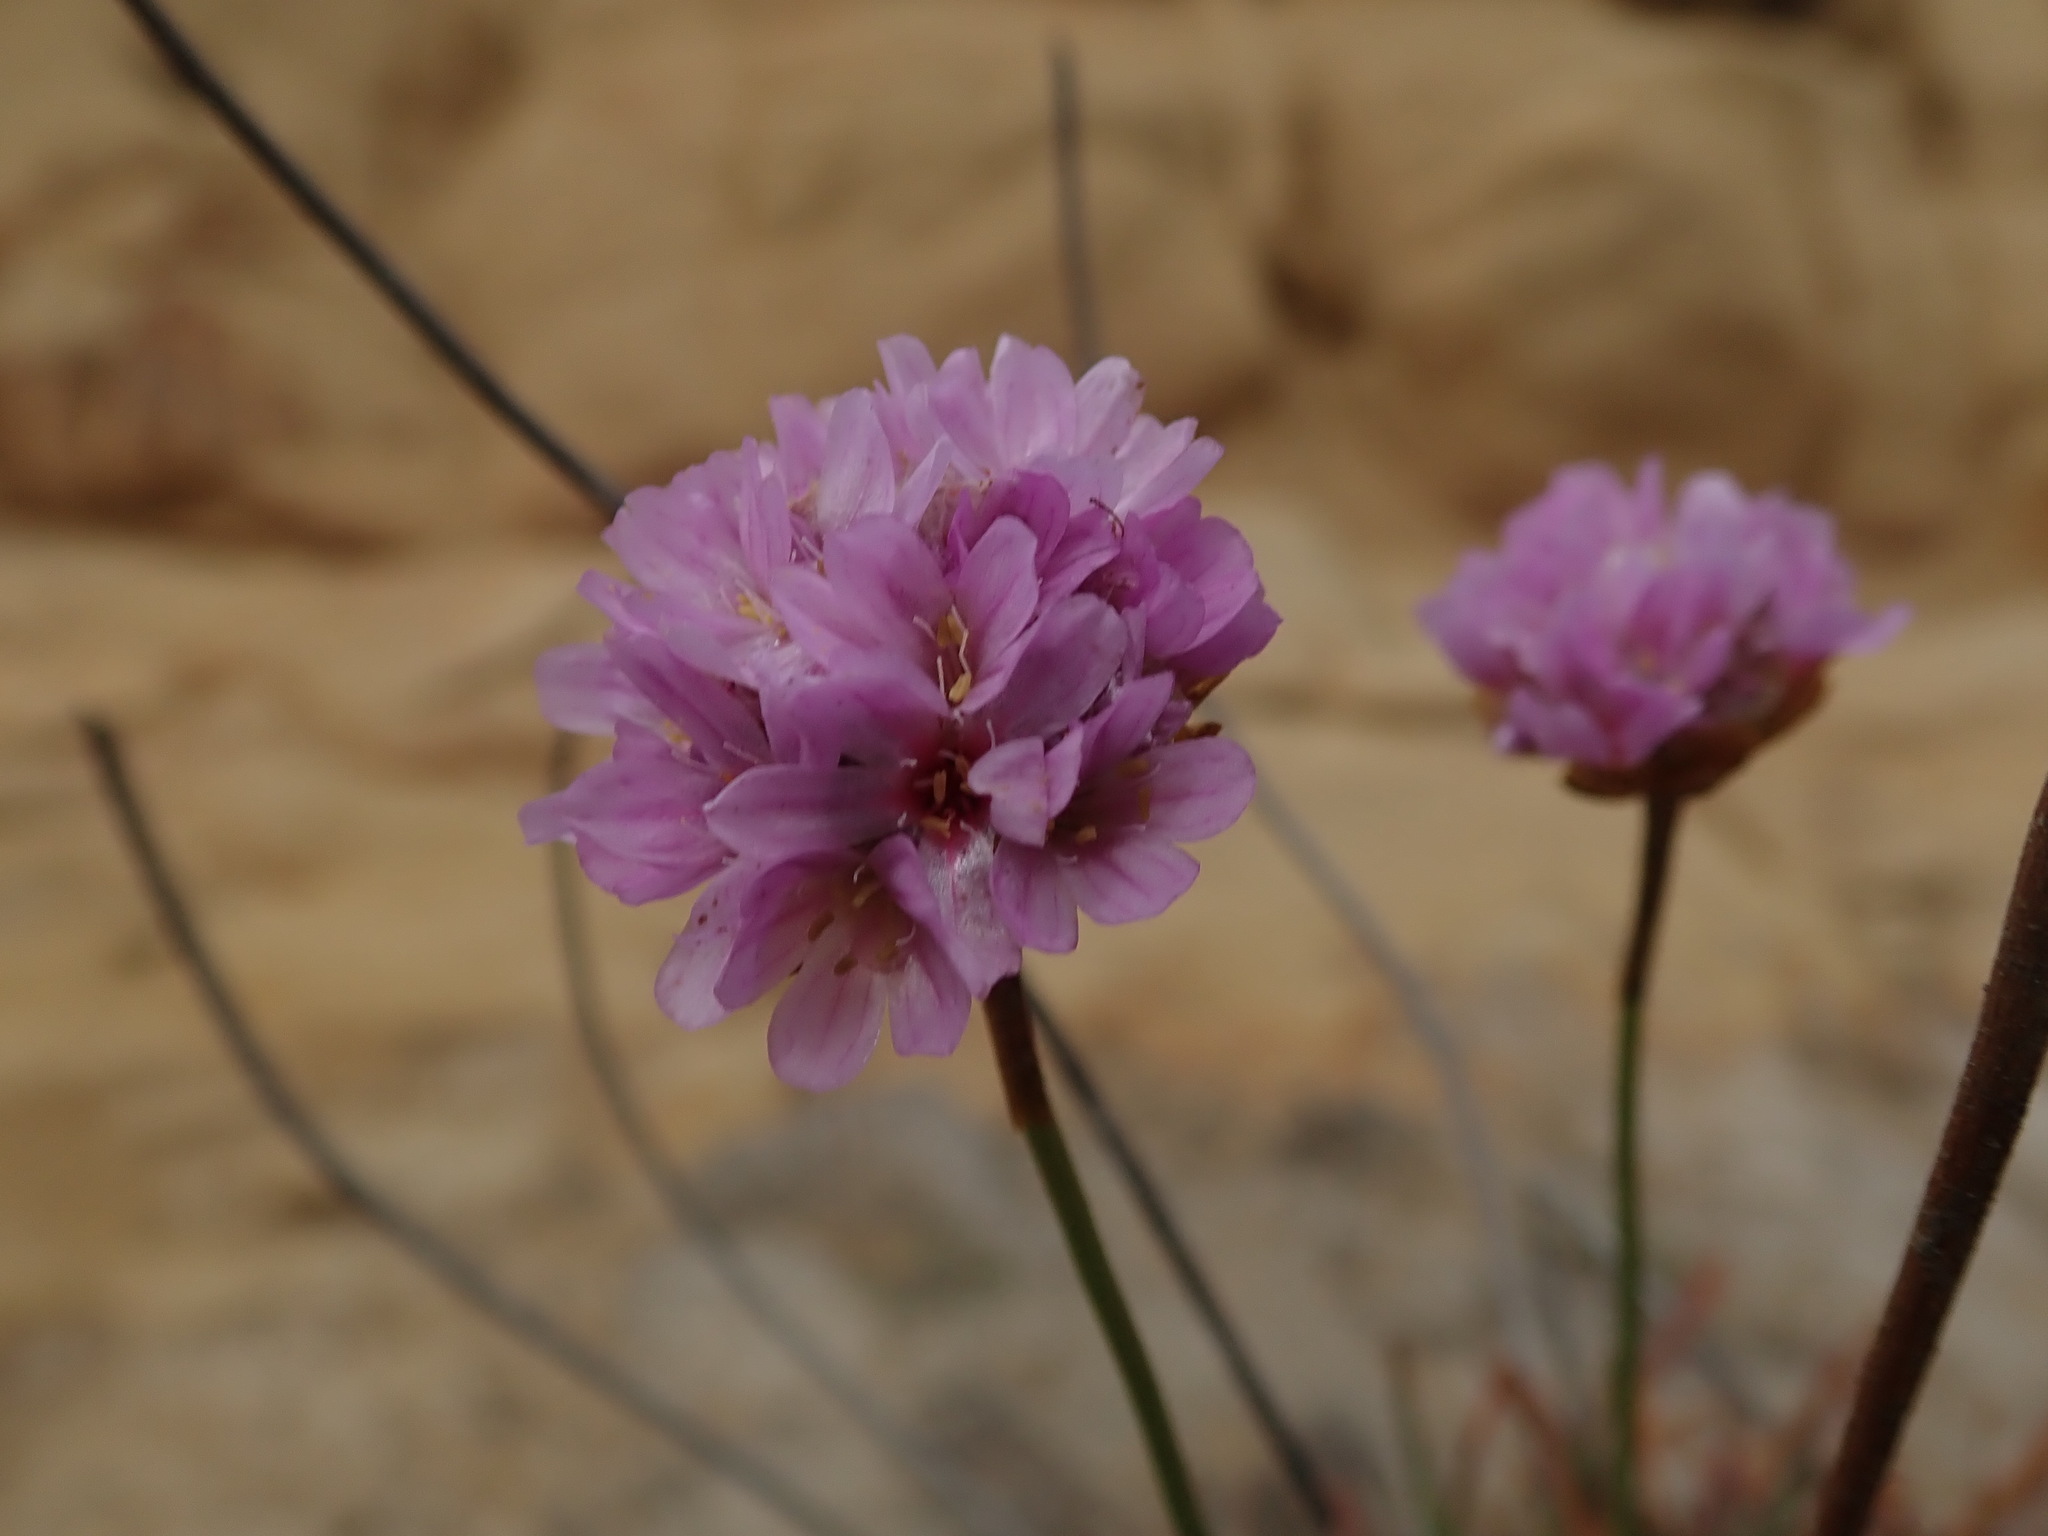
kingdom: Plantae
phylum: Tracheophyta
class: Magnoliopsida
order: Caryophyllales
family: Plumbaginaceae
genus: Armeria
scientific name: Armeria maritima
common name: Thrift
